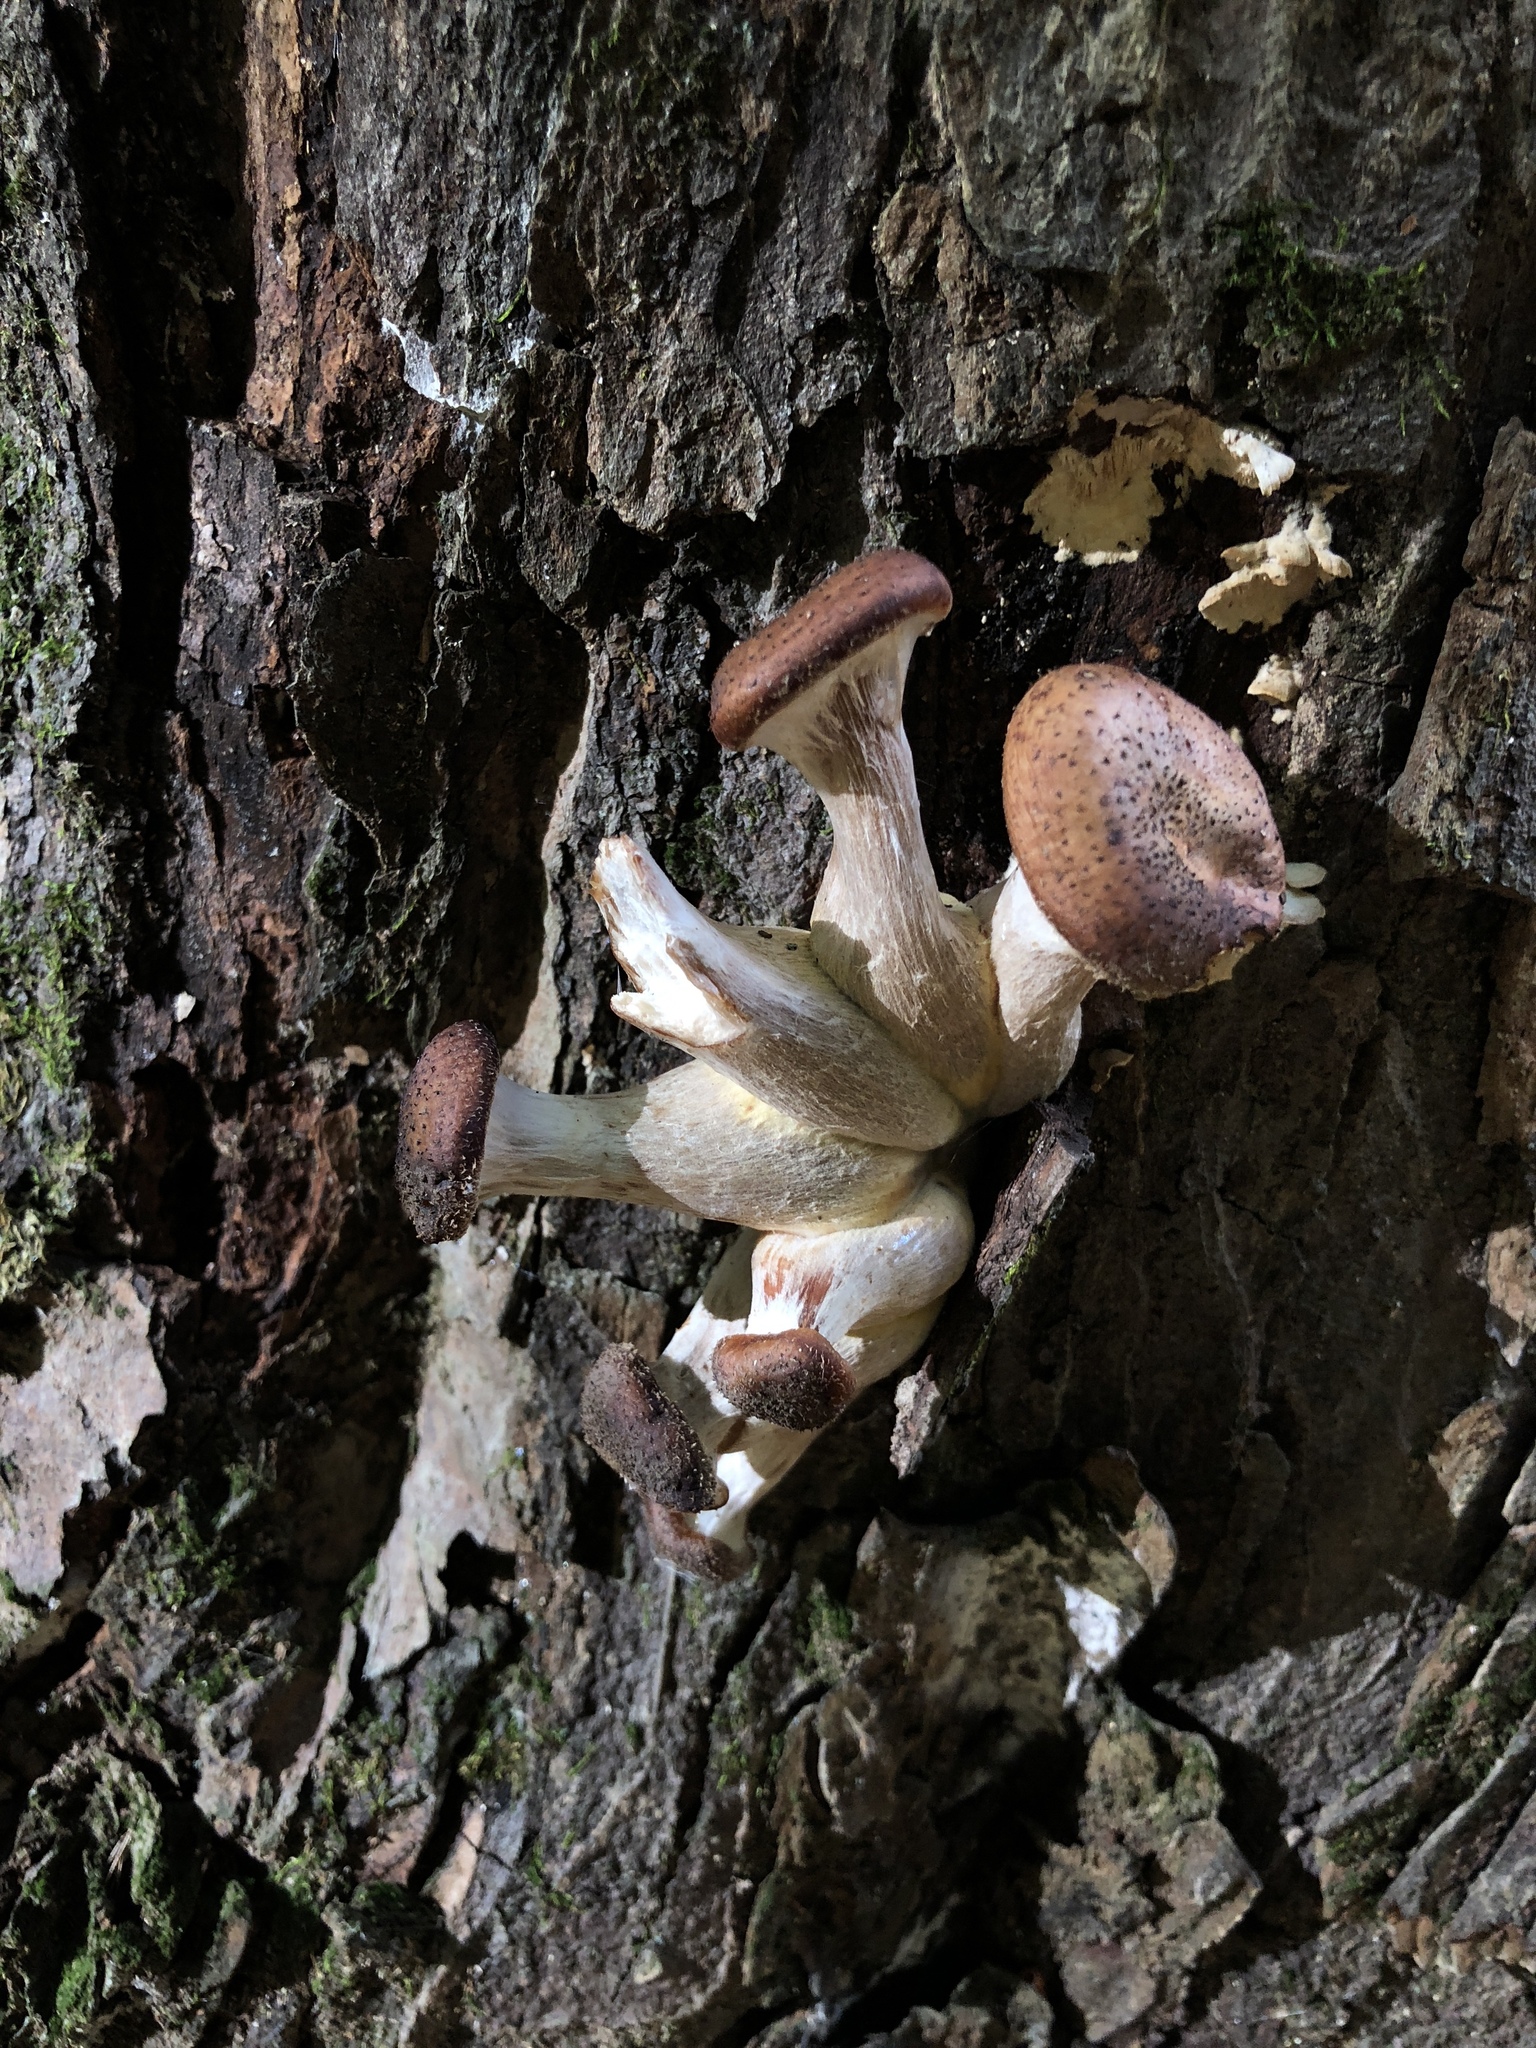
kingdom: Fungi
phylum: Basidiomycota
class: Agaricomycetes
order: Agaricales
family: Physalacriaceae
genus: Armillaria
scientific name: Armillaria mellea
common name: Honey fungus
